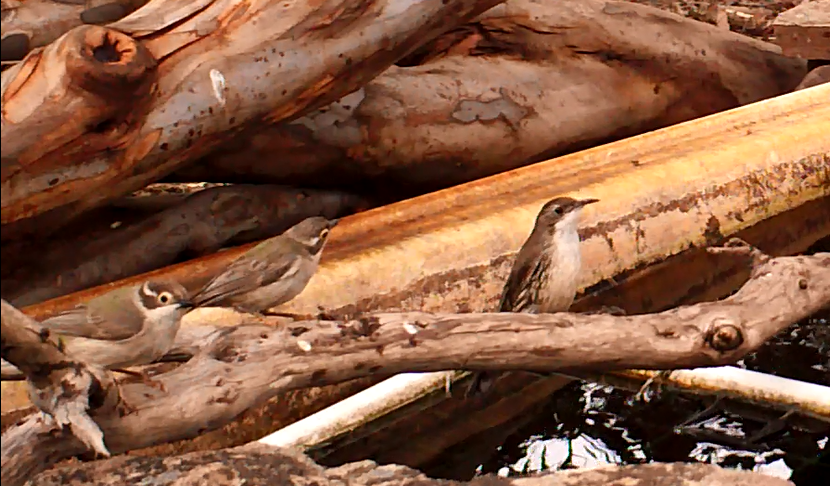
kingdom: Animalia
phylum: Chordata
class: Aves
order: Passeriformes
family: Climacteridae
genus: Cormobates
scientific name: Cormobates leucophaea
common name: White-throated treecreeper
